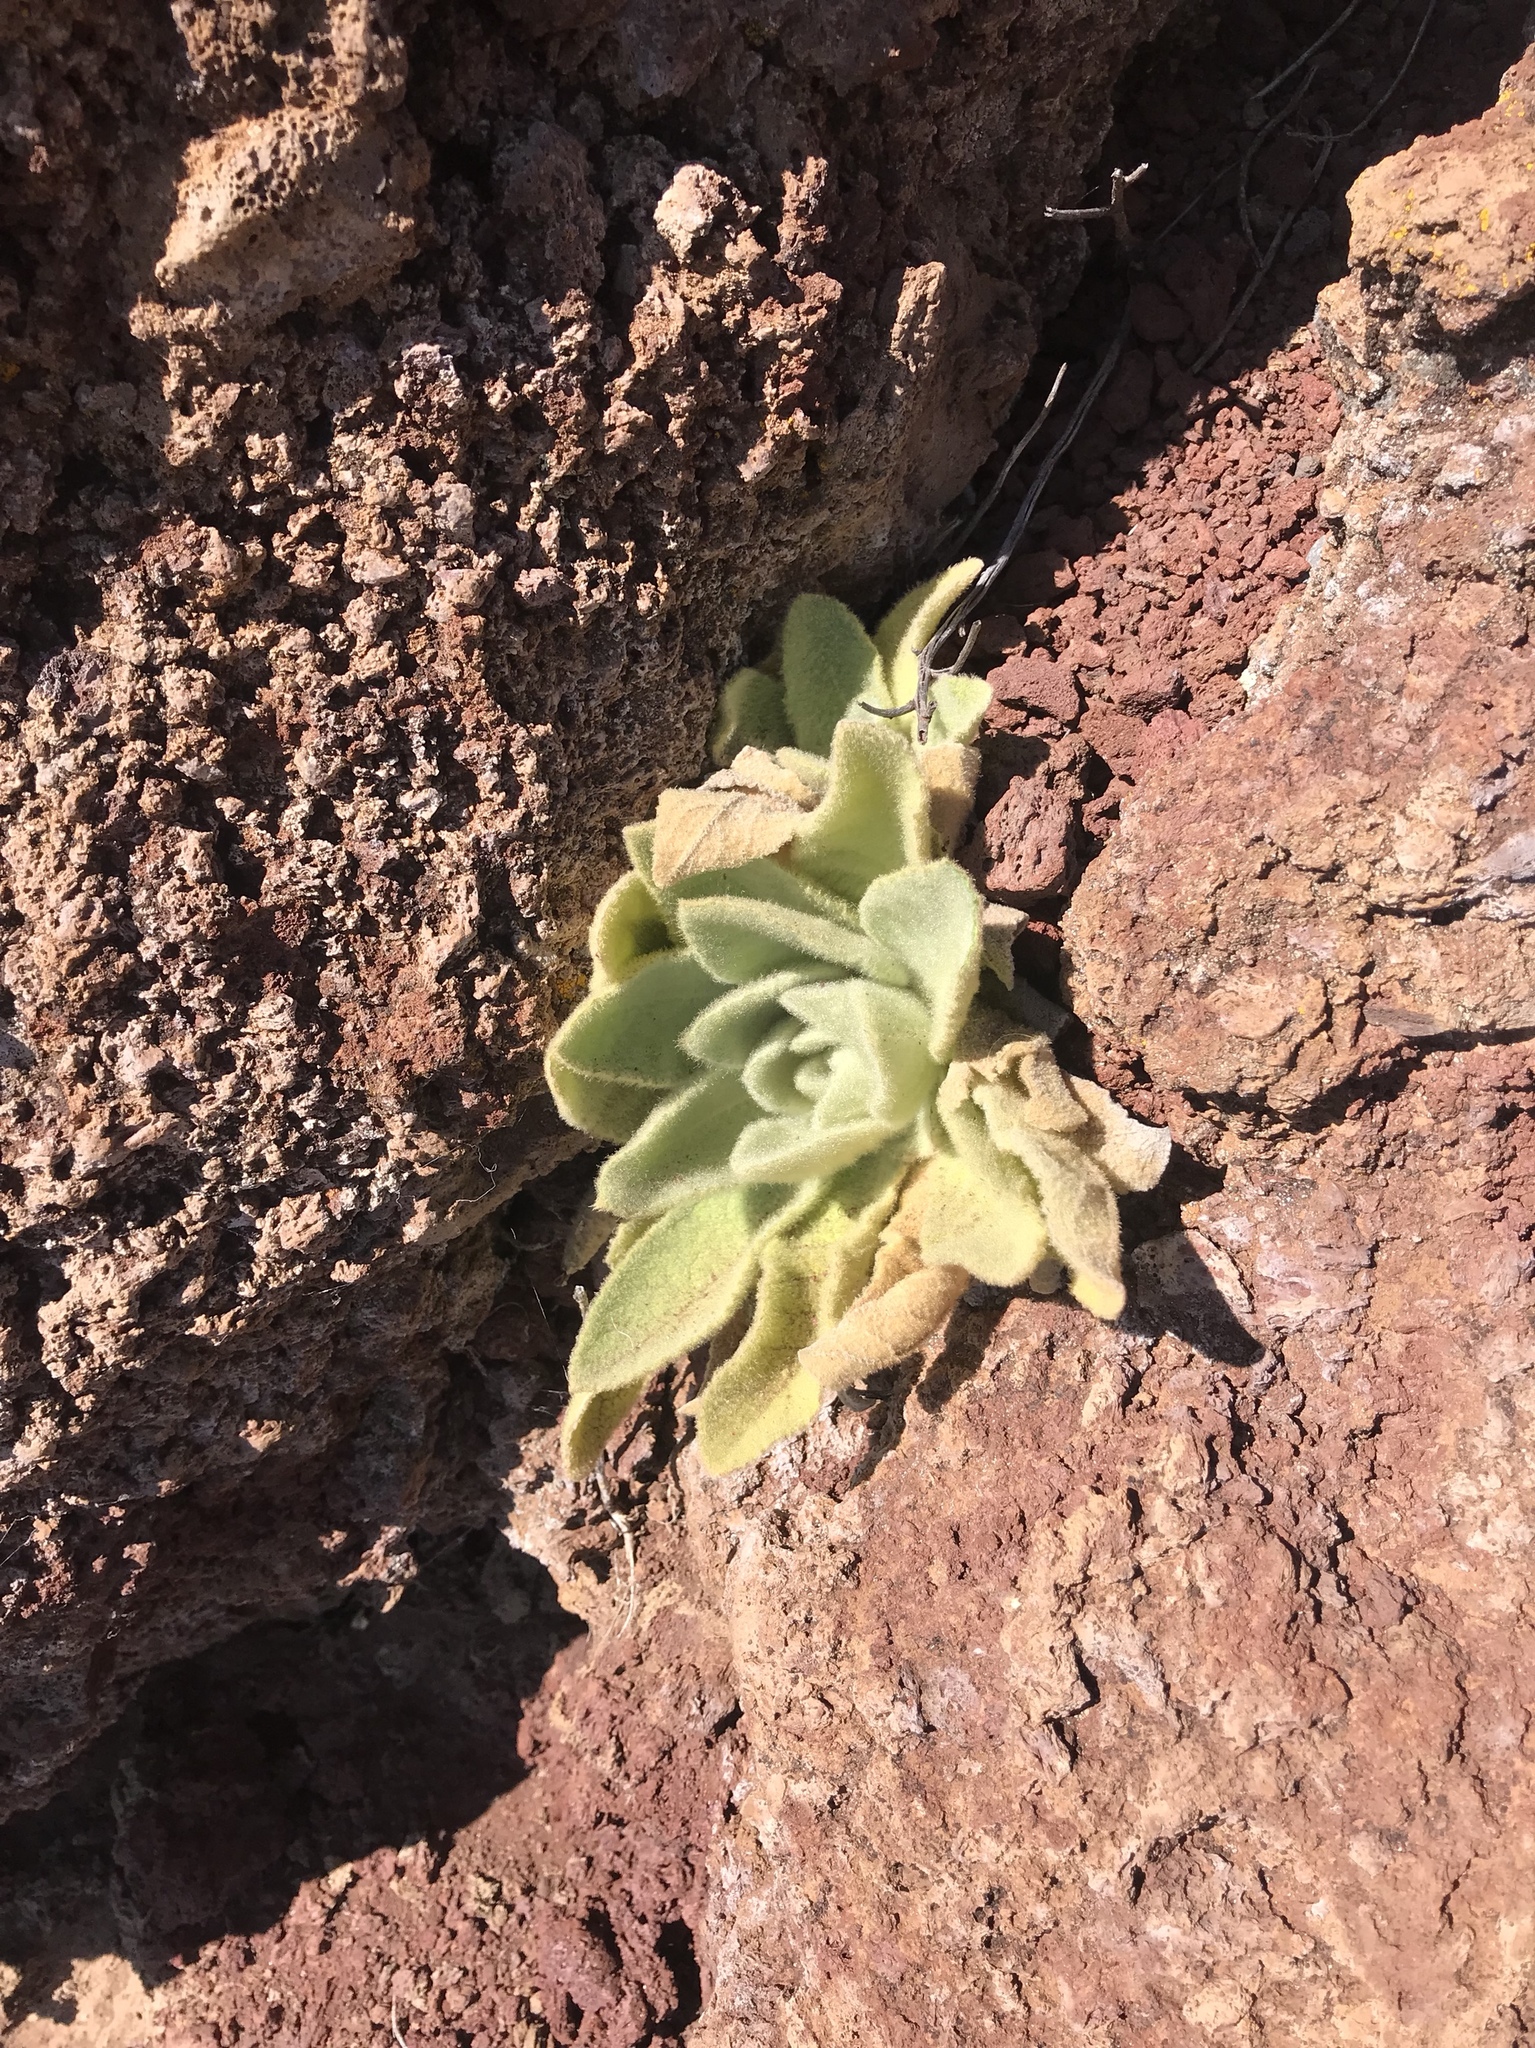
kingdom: Plantae
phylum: Tracheophyta
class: Magnoliopsida
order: Lamiales
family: Scrophulariaceae
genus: Verbascum
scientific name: Verbascum thapsus
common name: Common mullein
